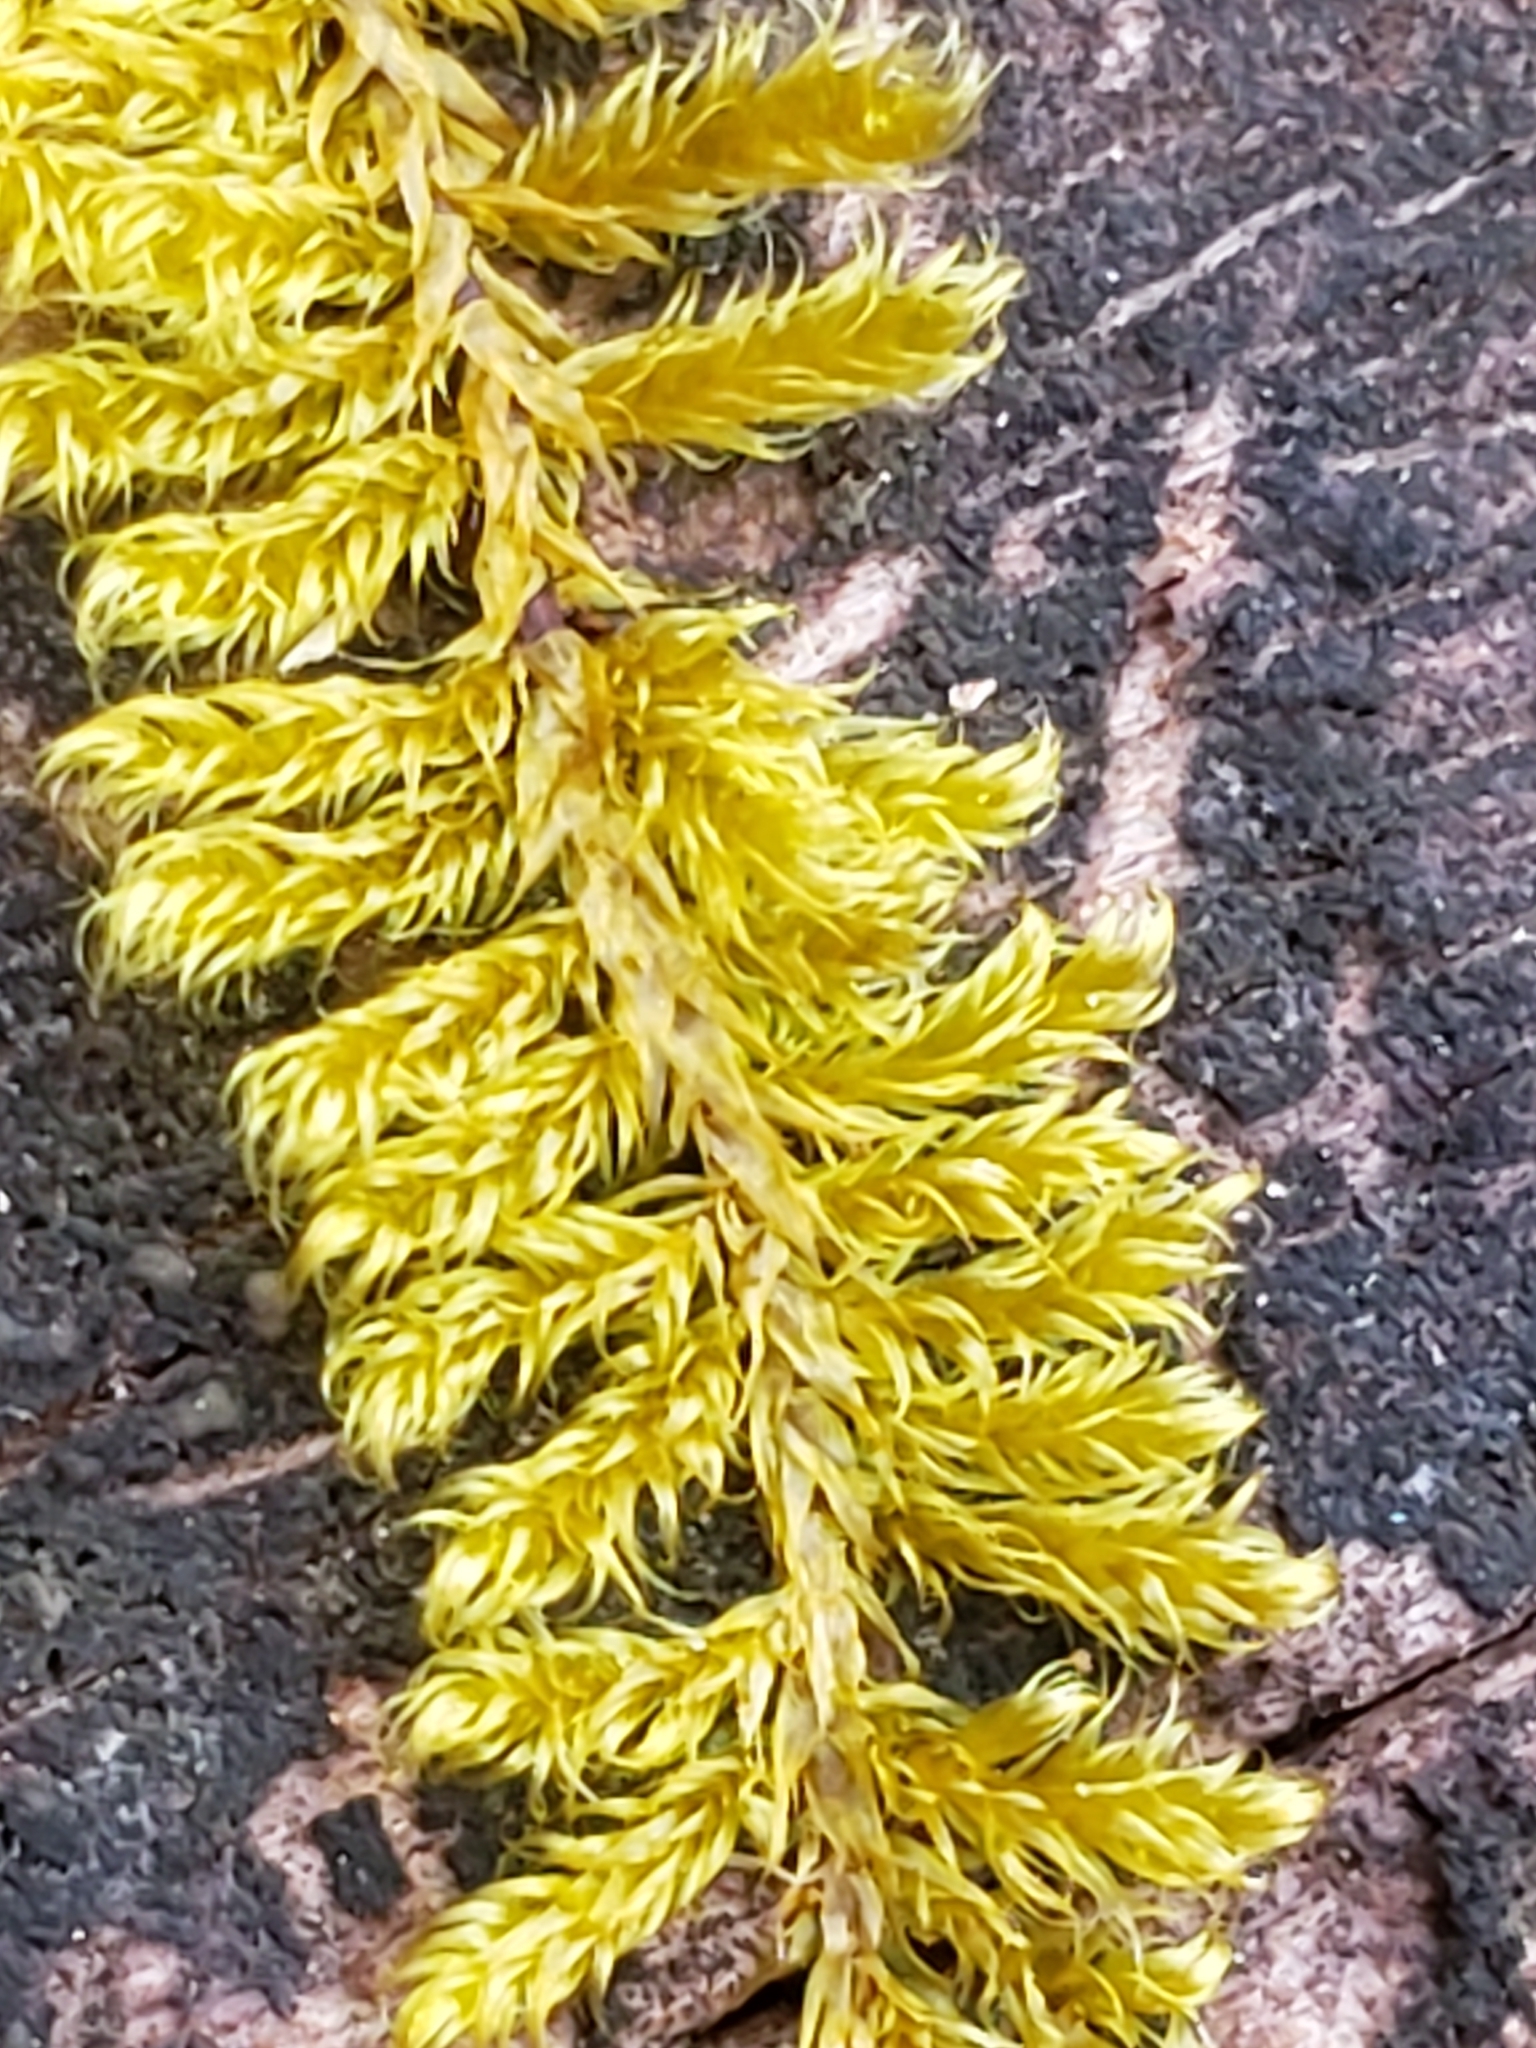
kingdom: Plantae
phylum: Bryophyta
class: Bryopsida
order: Hypnales
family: Callicladiaceae
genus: Callicladium
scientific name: Callicladium imponens
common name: Brocade moss
